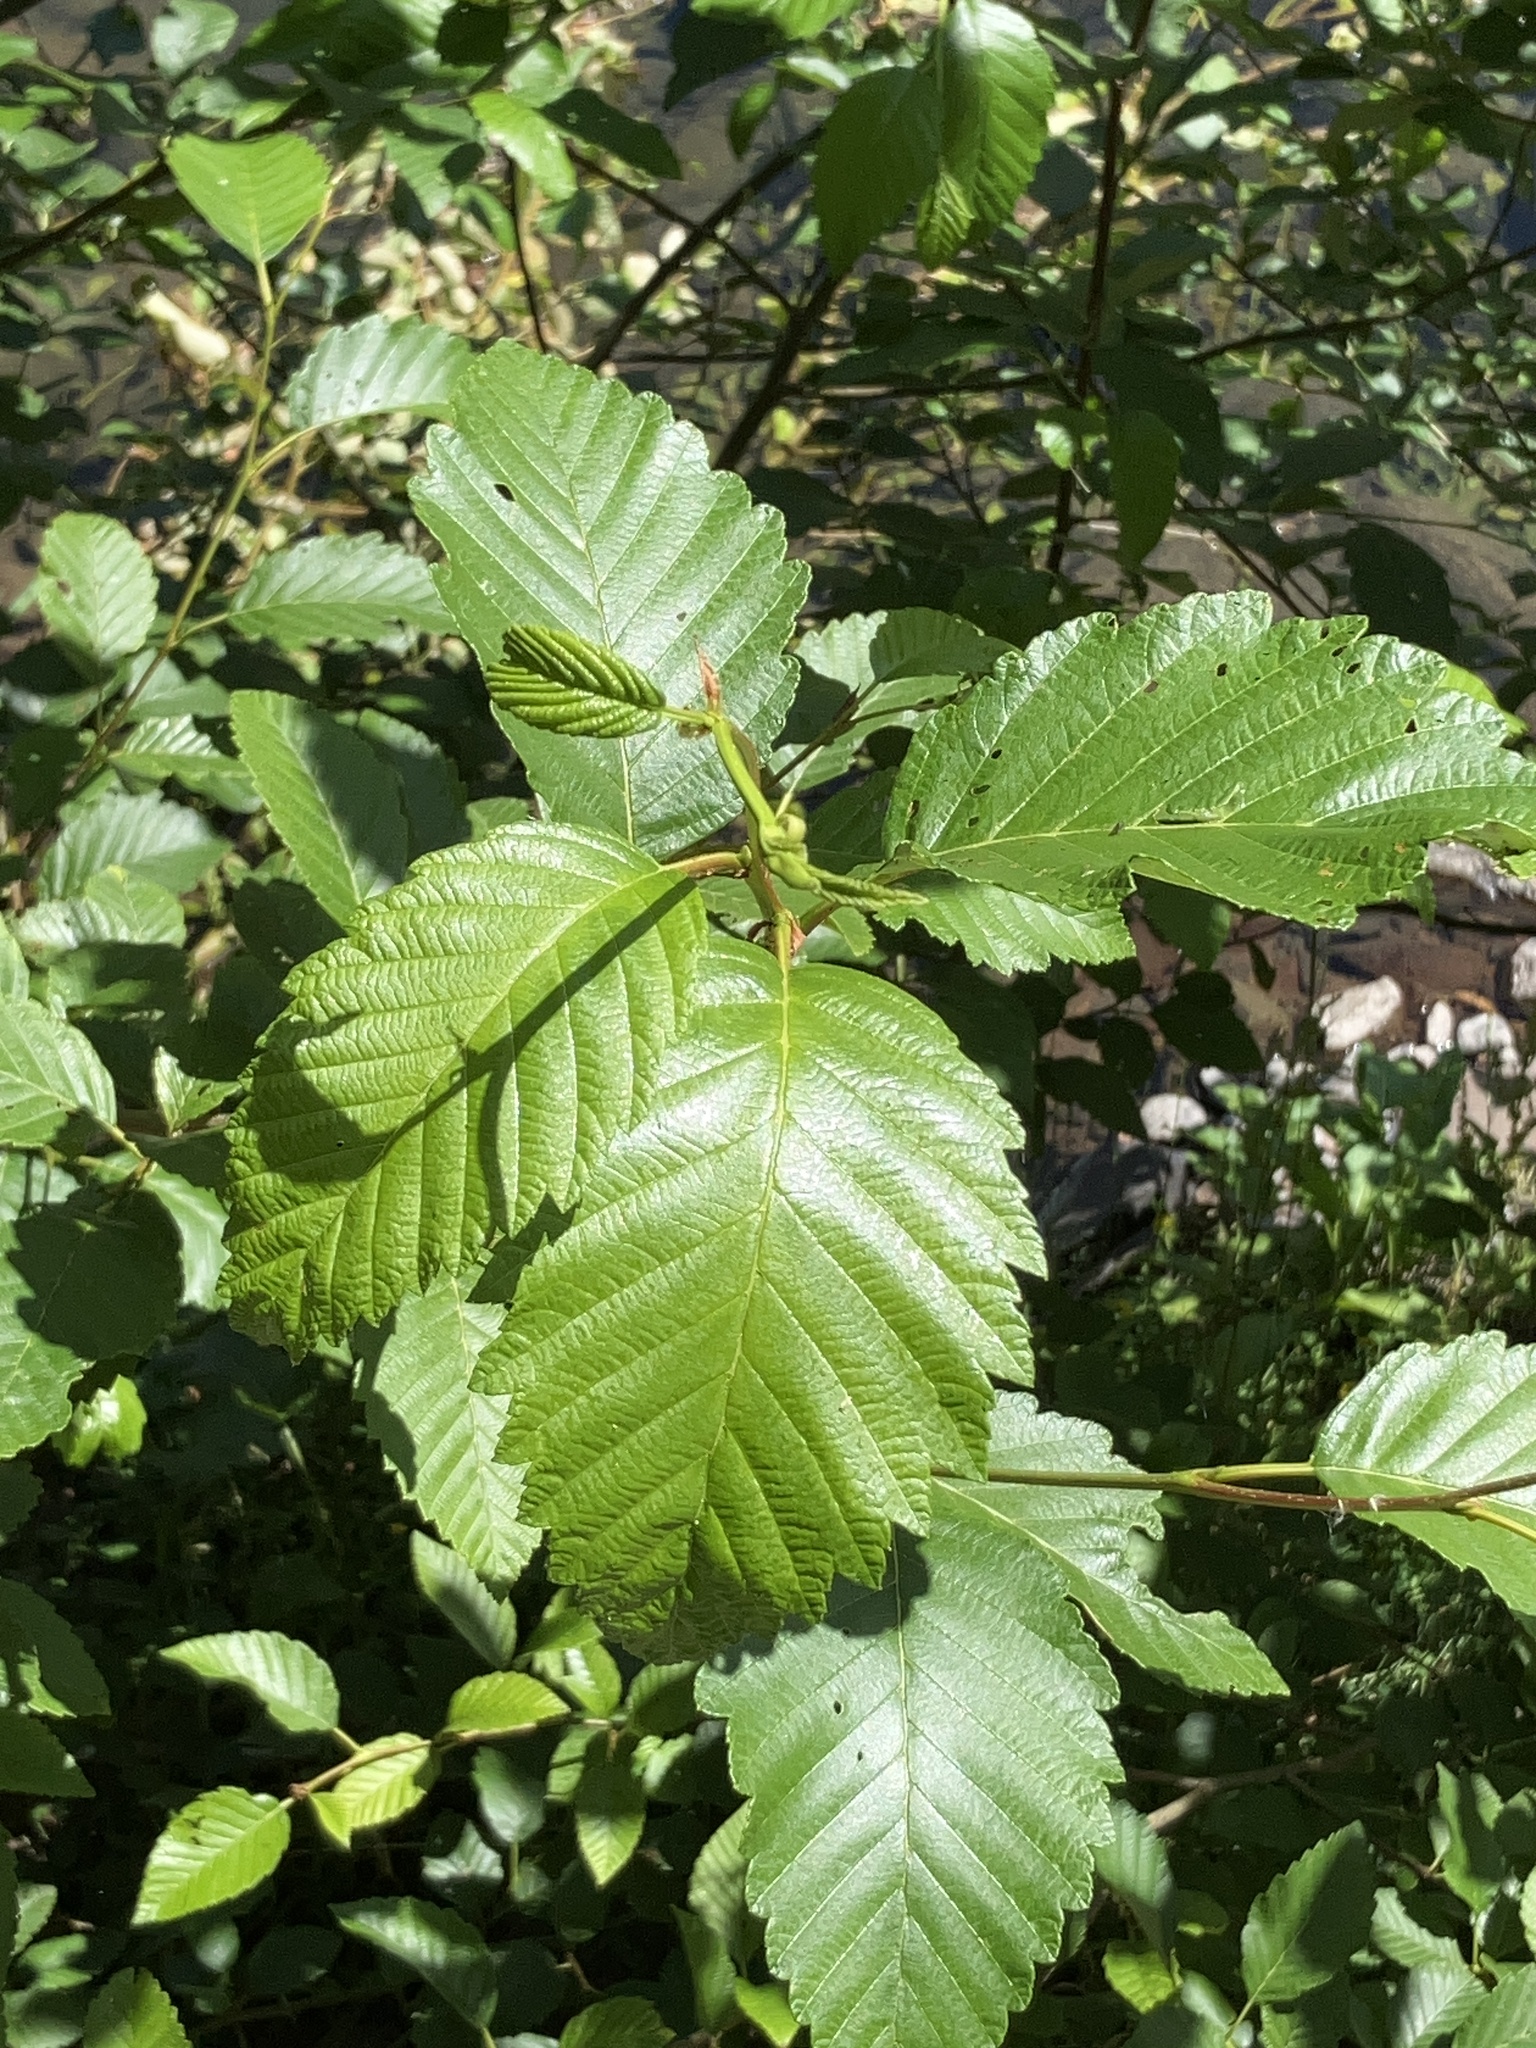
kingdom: Plantae
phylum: Tracheophyta
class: Magnoliopsida
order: Fagales
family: Betulaceae
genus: Alnus
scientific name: Alnus rubra
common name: Red alder
